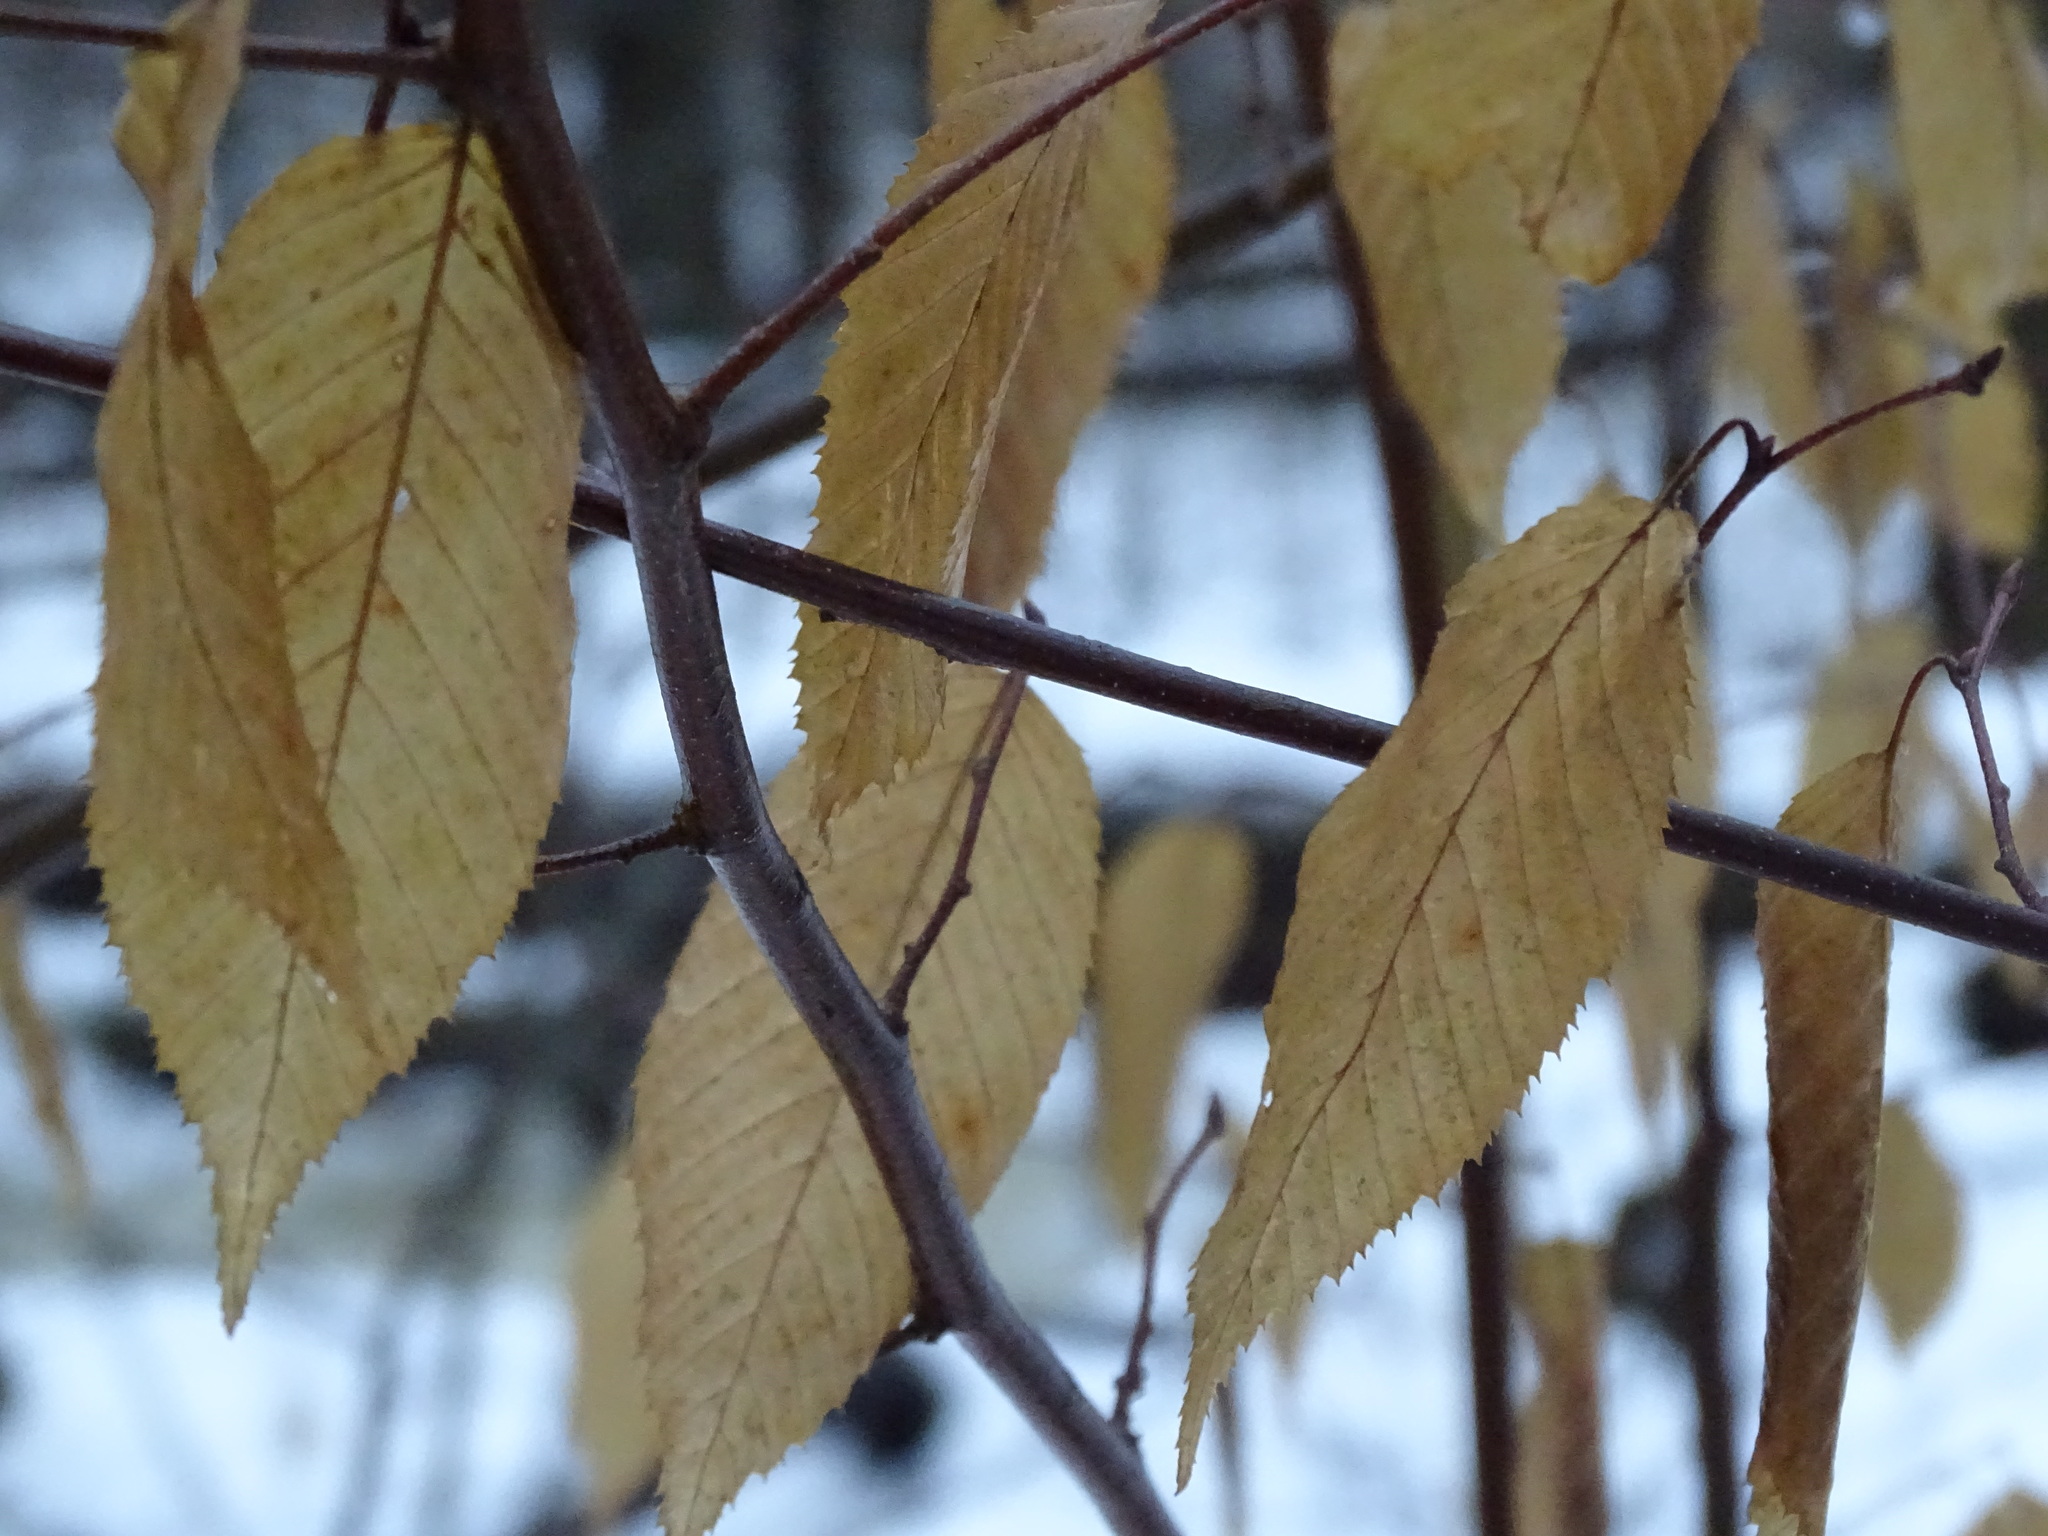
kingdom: Plantae
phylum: Tracheophyta
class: Magnoliopsida
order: Fagales
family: Betulaceae
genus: Carpinus
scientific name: Carpinus caroliniana
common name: American hornbeam
